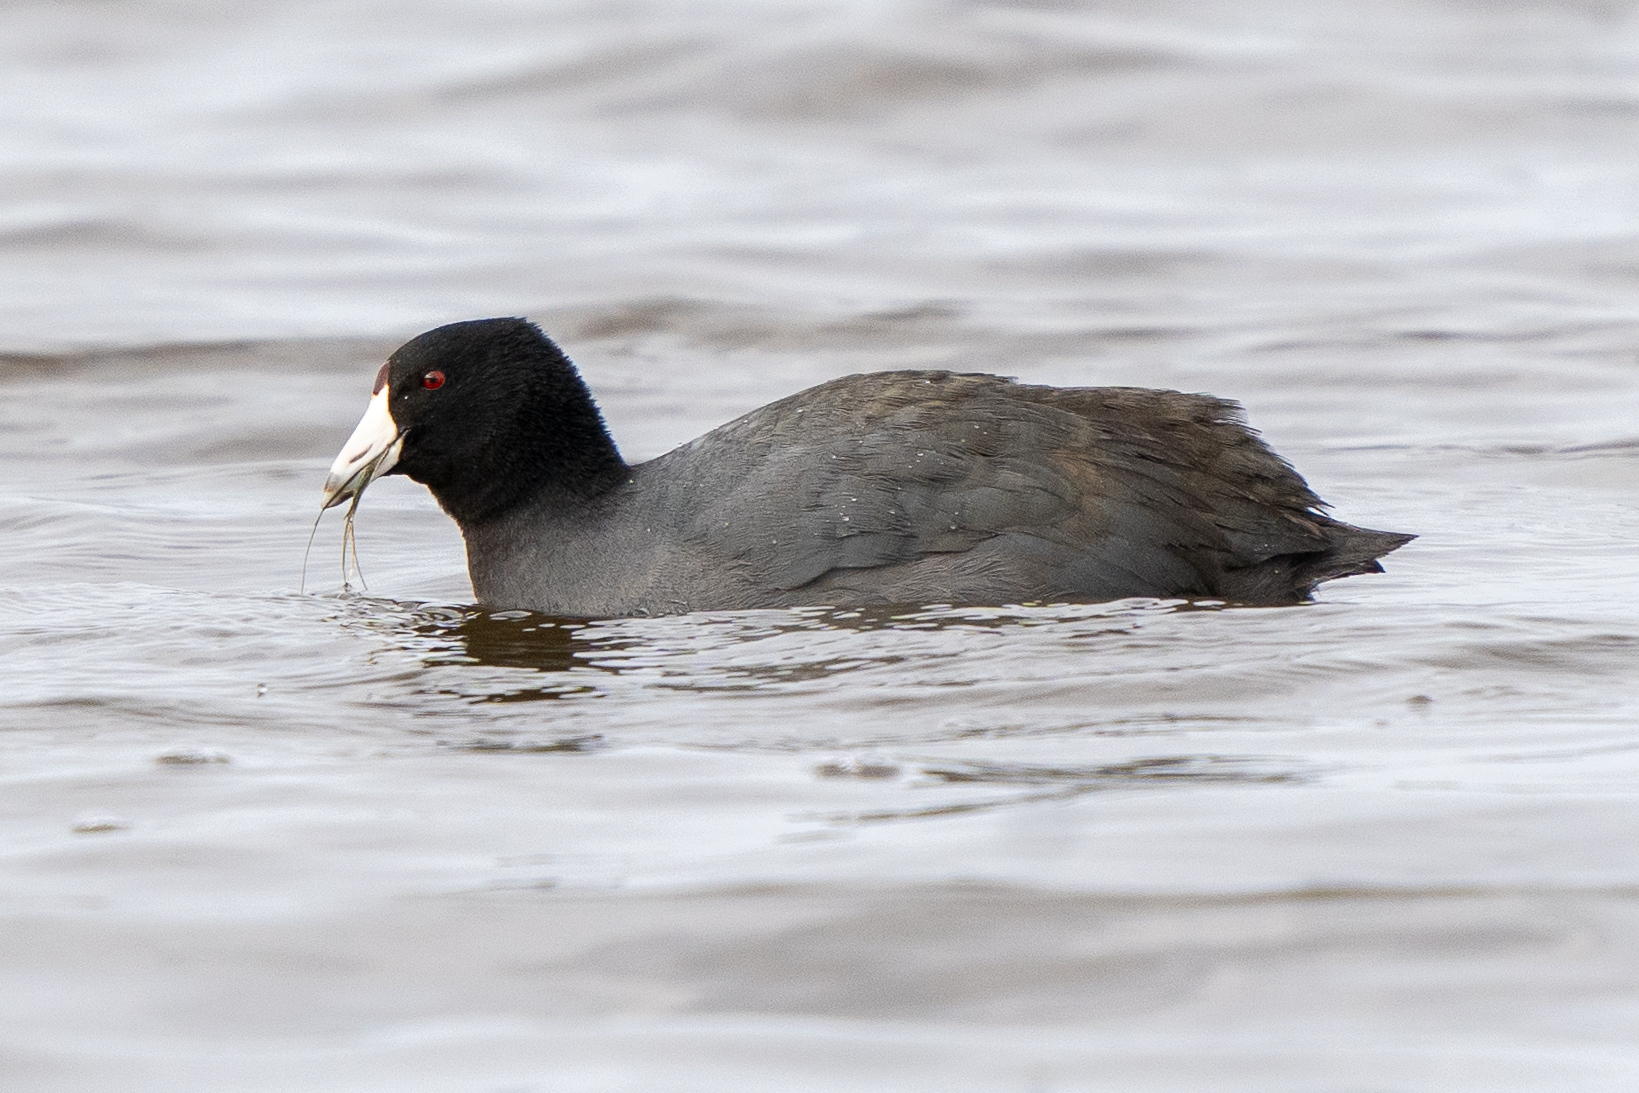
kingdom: Animalia
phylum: Chordata
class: Aves
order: Gruiformes
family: Rallidae
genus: Fulica
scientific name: Fulica americana
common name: American coot
